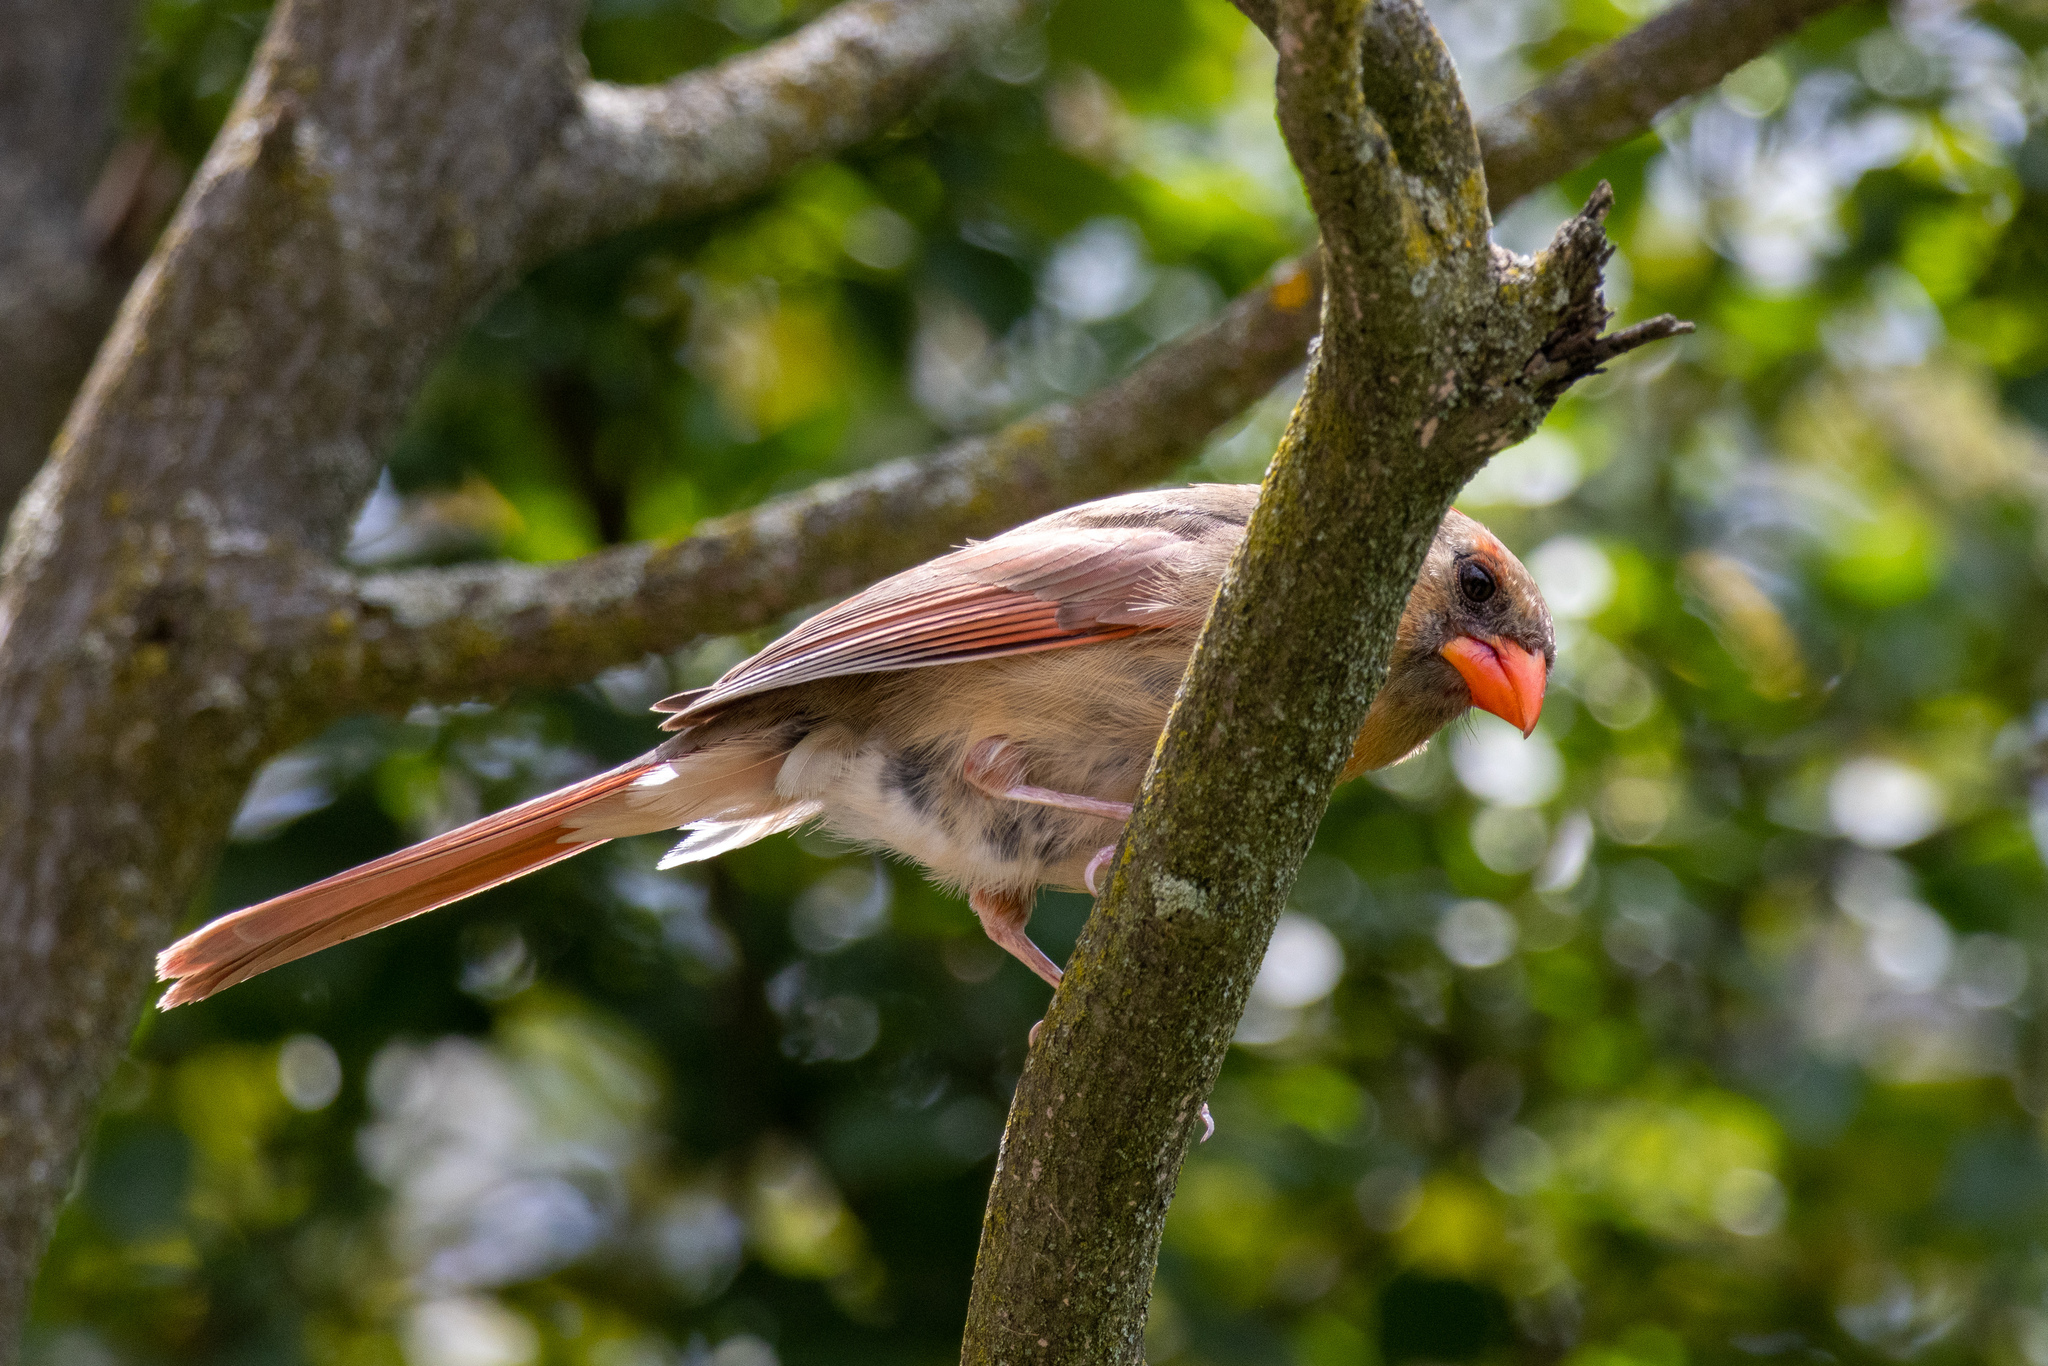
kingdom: Animalia
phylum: Chordata
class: Aves
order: Passeriformes
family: Cardinalidae
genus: Cardinalis
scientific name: Cardinalis cardinalis
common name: Northern cardinal
